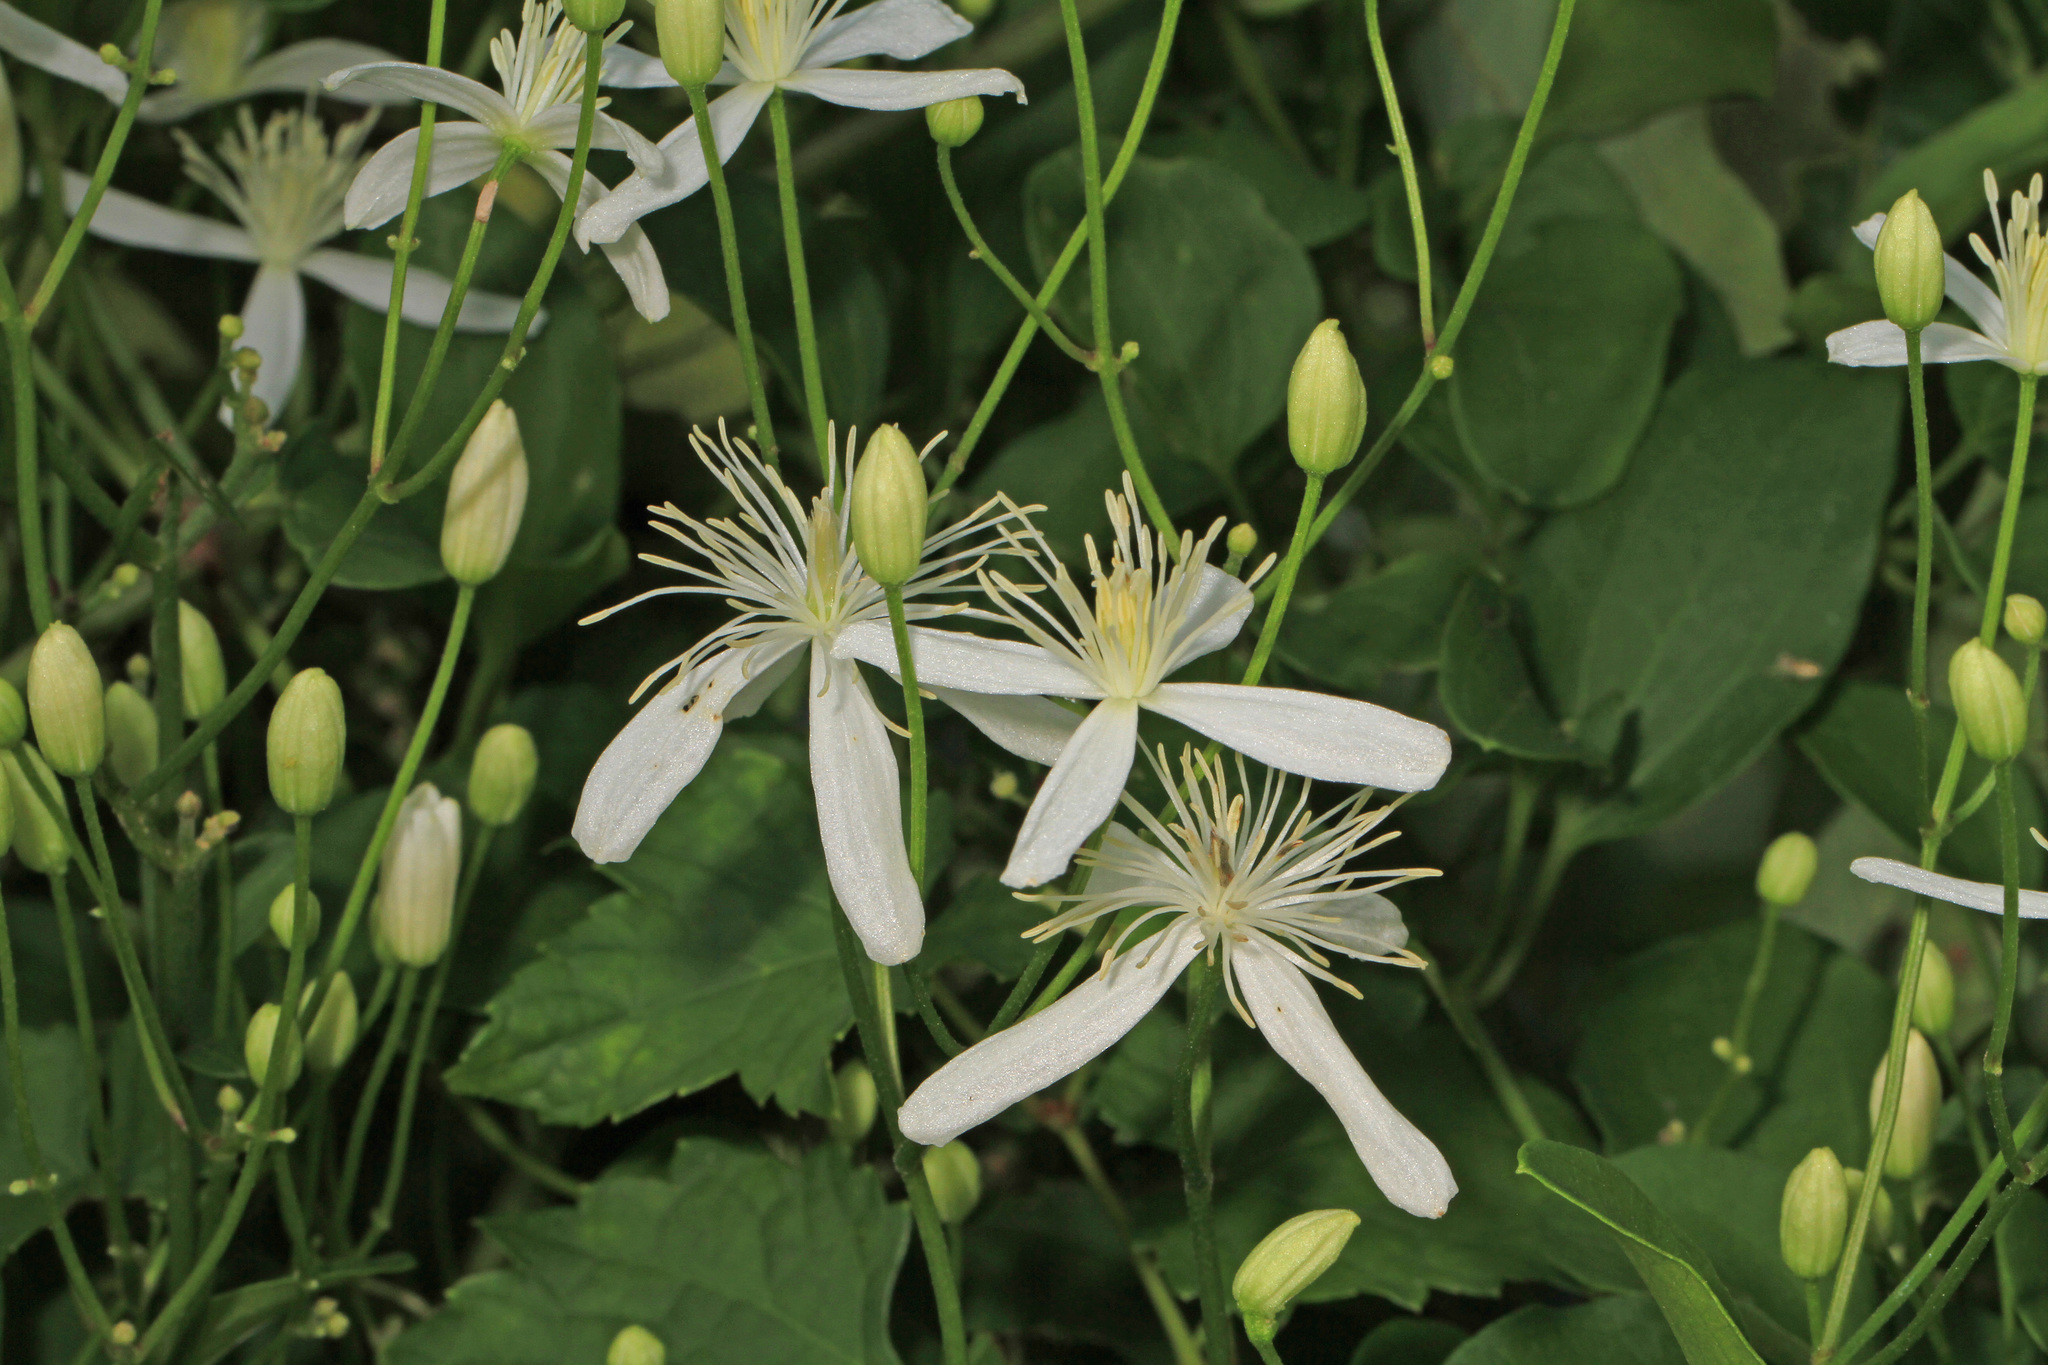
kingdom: Plantae
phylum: Tracheophyta
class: Magnoliopsida
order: Ranunculales
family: Ranunculaceae
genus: Clematis
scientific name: Clematis terniflora
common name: Sweet autumn clematis
